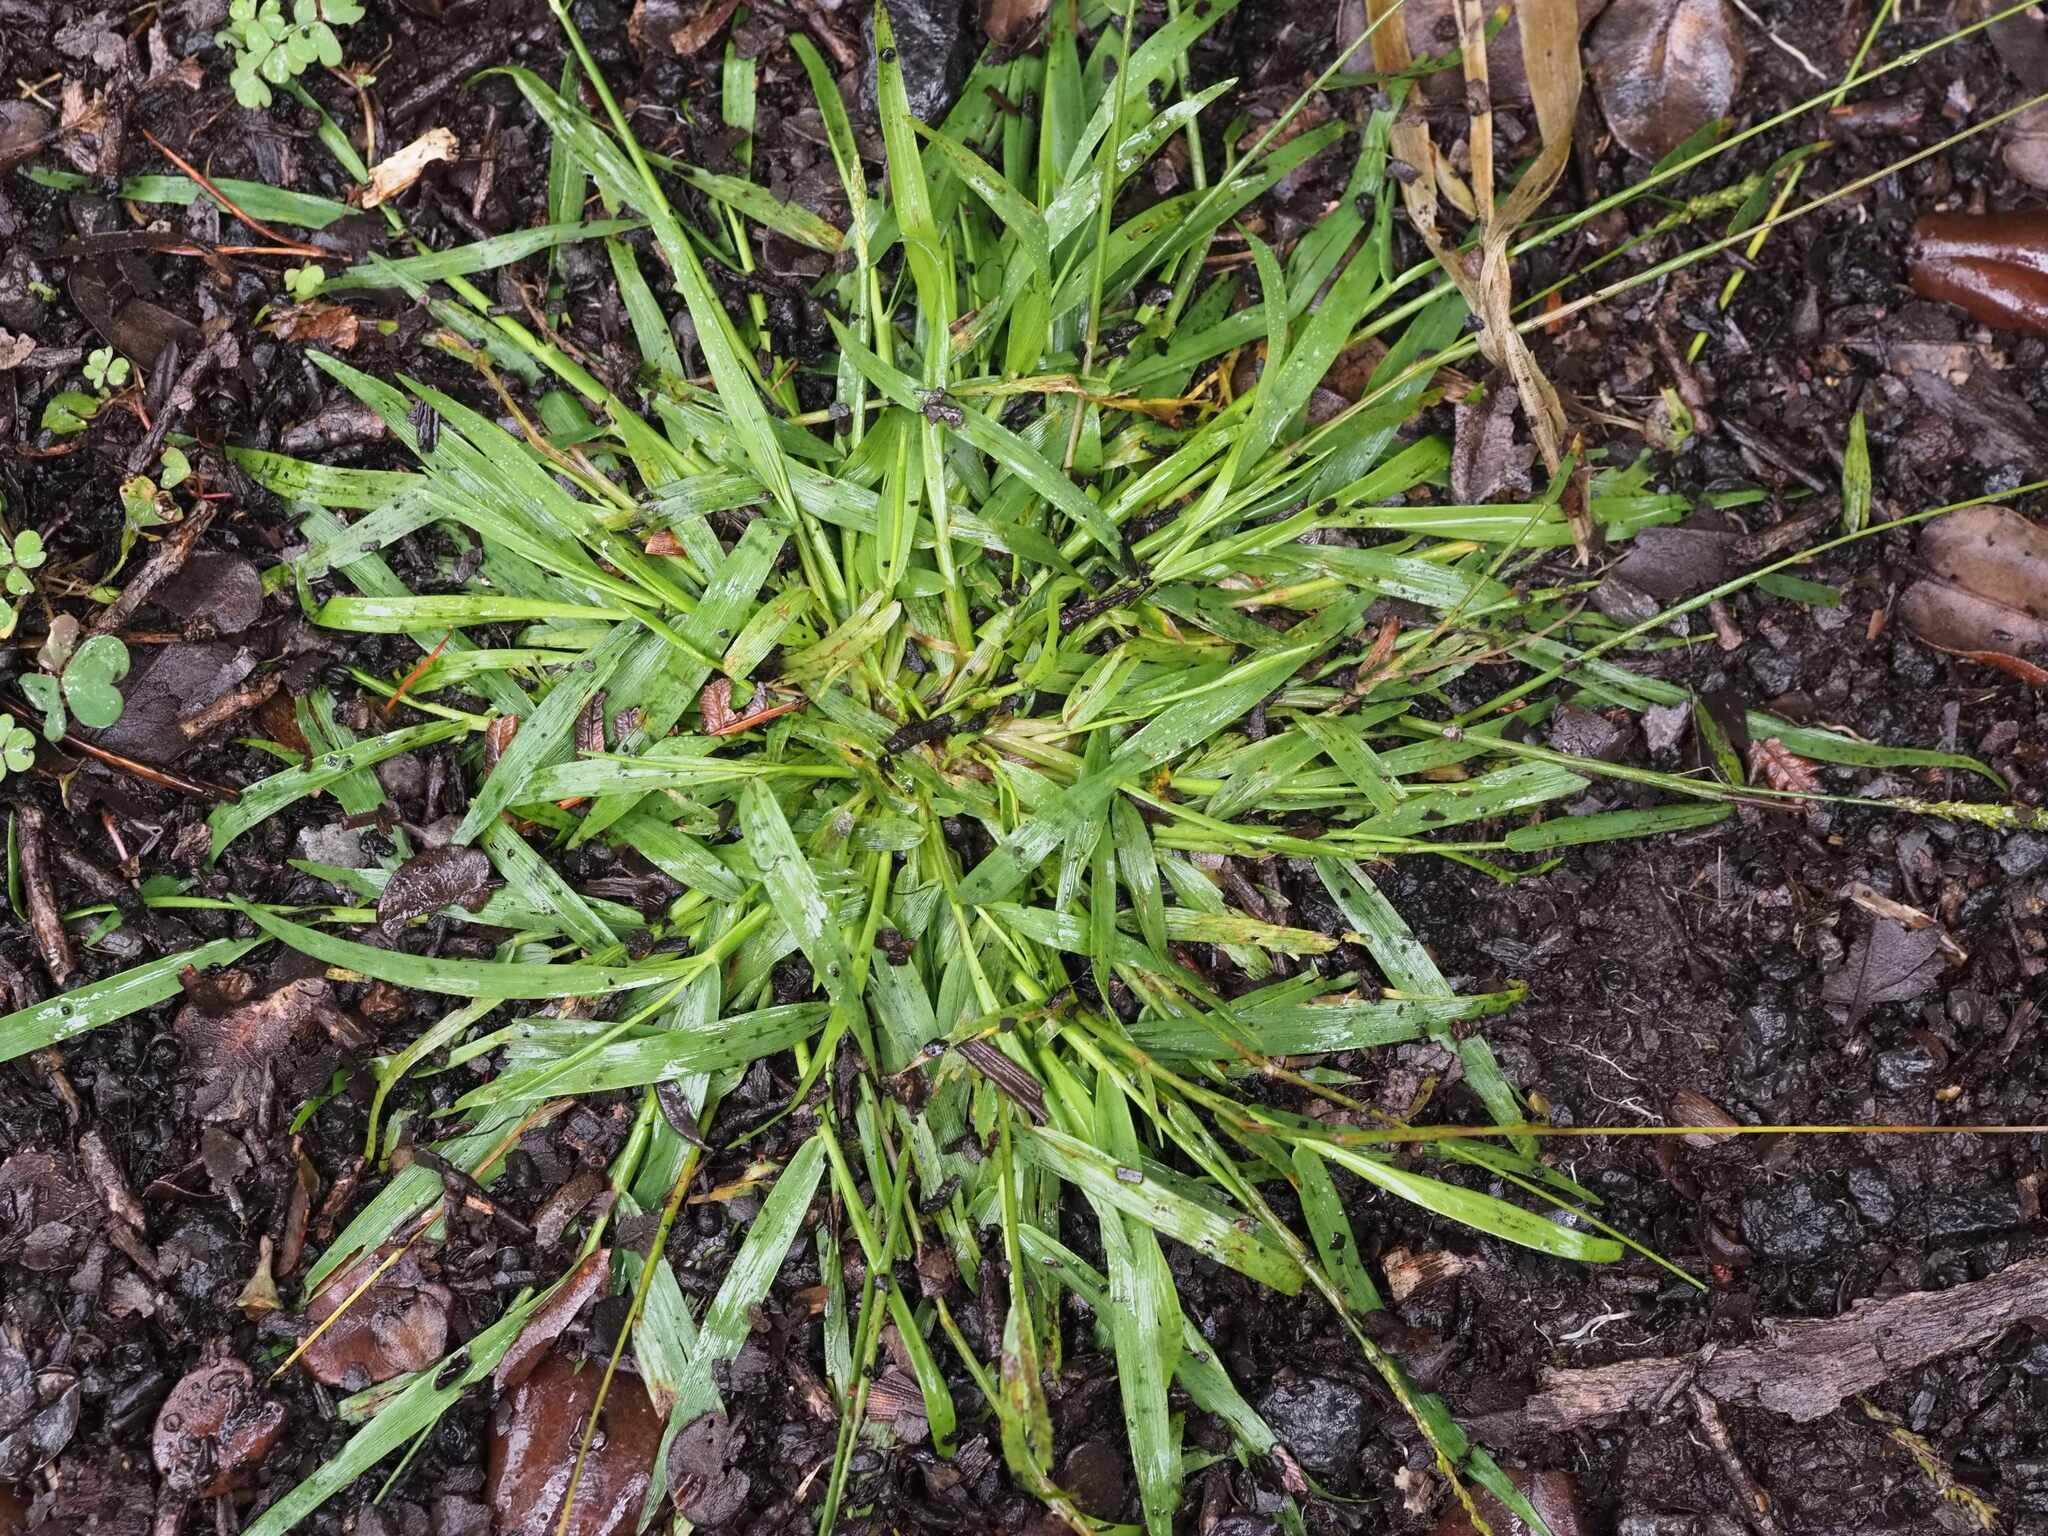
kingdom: Plantae
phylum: Tracheophyta
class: Liliopsida
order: Poales
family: Poaceae
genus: Sacciolepis
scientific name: Sacciolepis indica
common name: Glenwoodgrass
